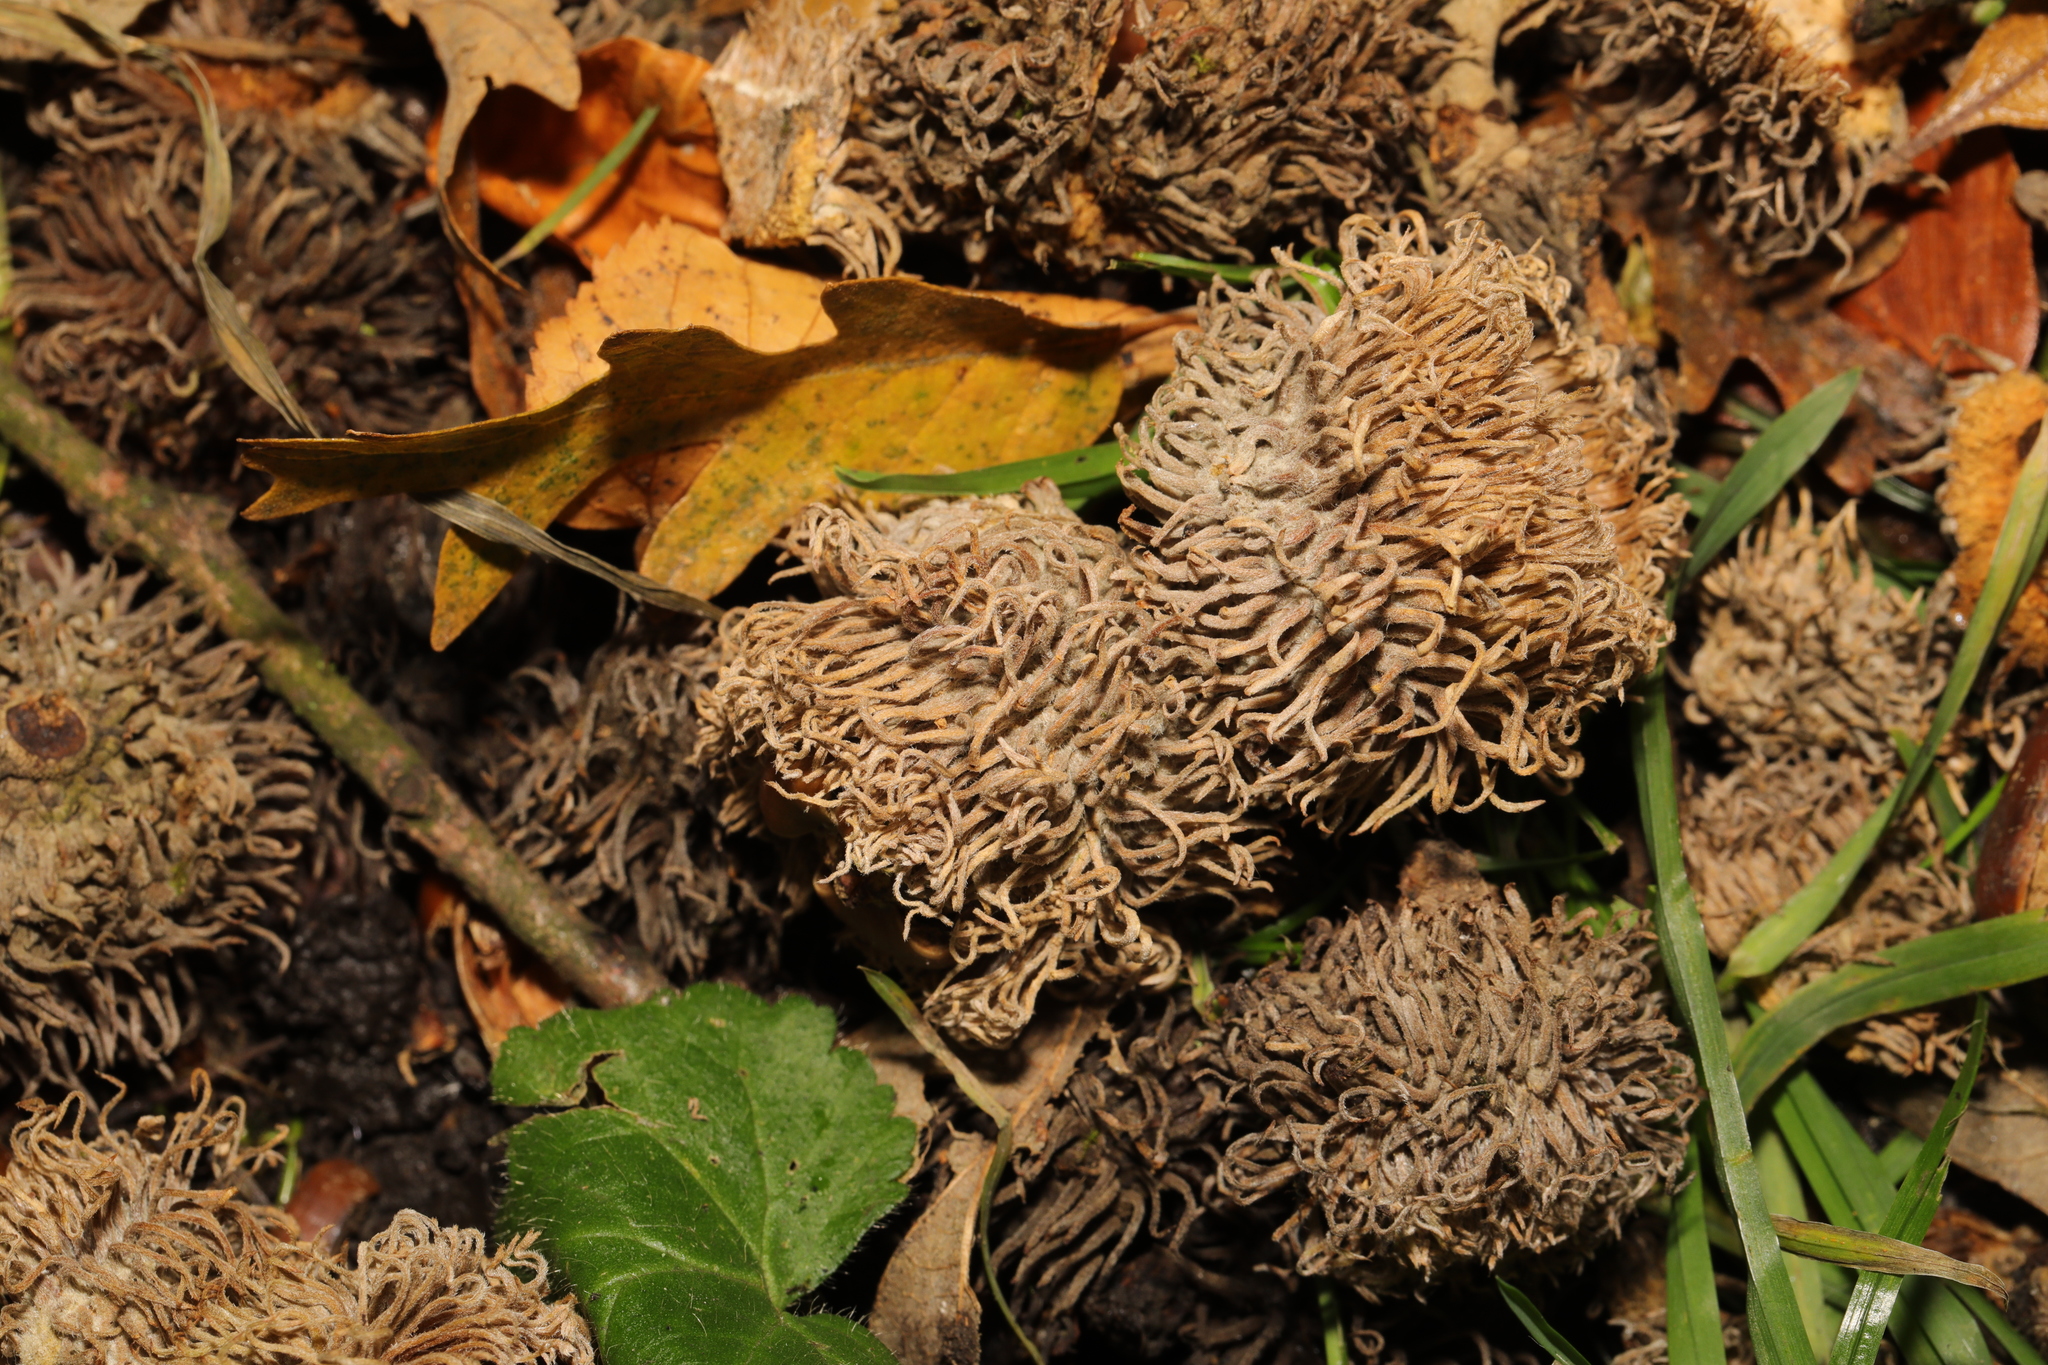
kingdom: Plantae
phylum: Tracheophyta
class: Magnoliopsida
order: Fagales
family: Fagaceae
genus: Quercus
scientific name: Quercus cerris
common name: Turkey oak
